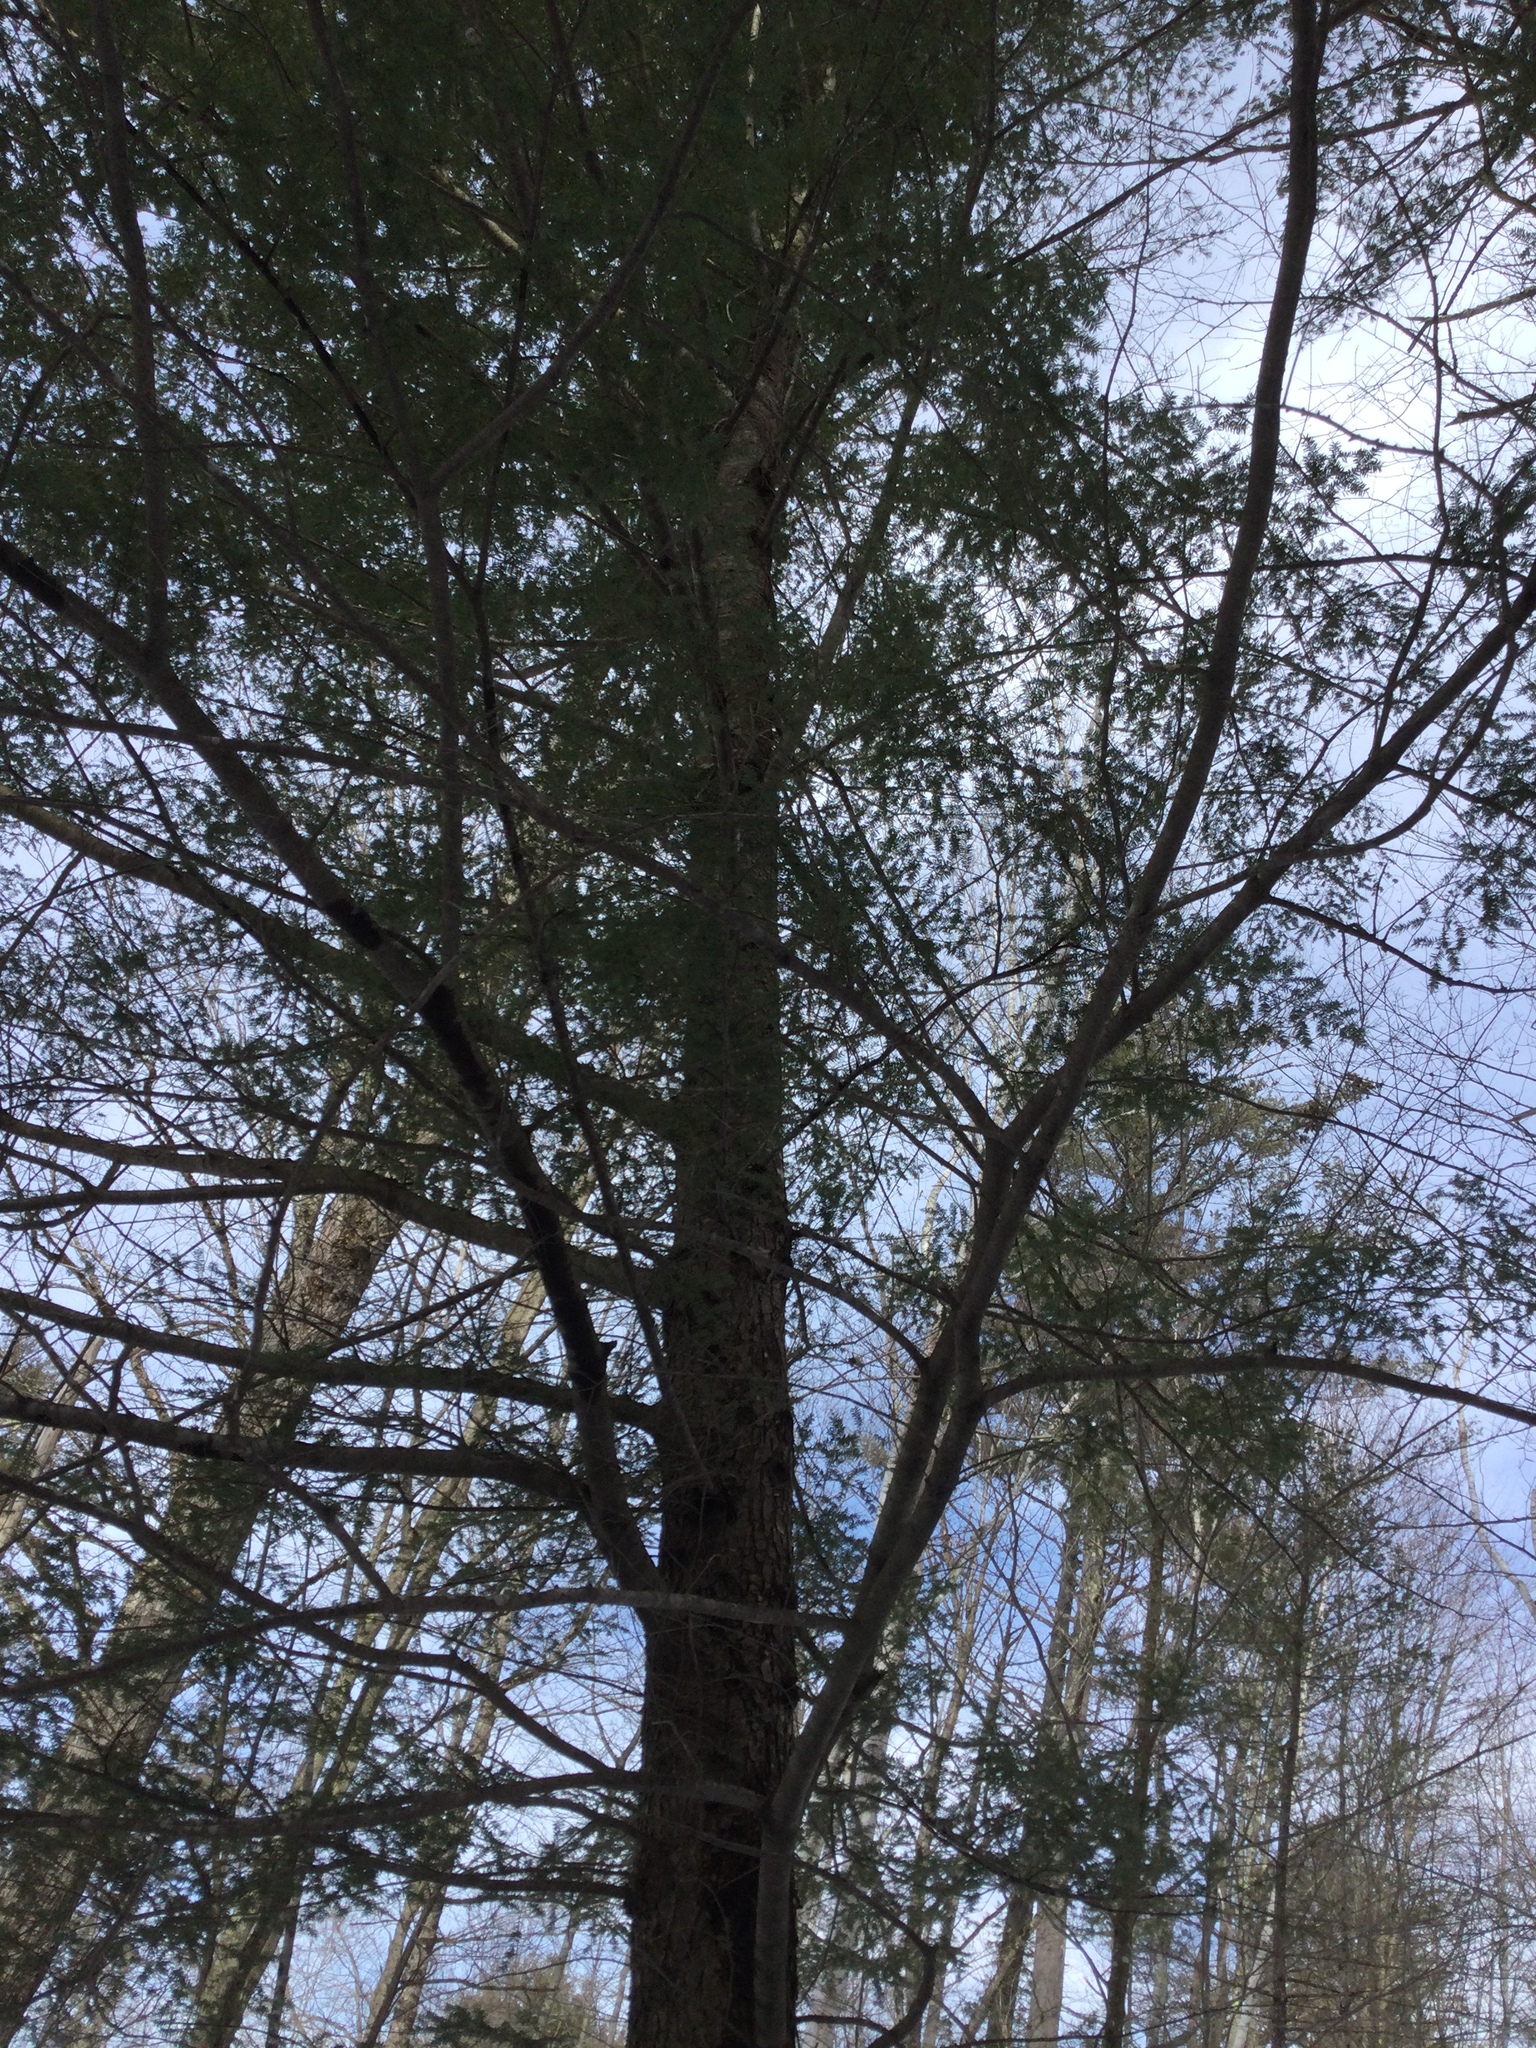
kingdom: Plantae
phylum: Tracheophyta
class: Pinopsida
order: Pinales
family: Pinaceae
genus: Tsuga
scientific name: Tsuga canadensis
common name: Eastern hemlock
